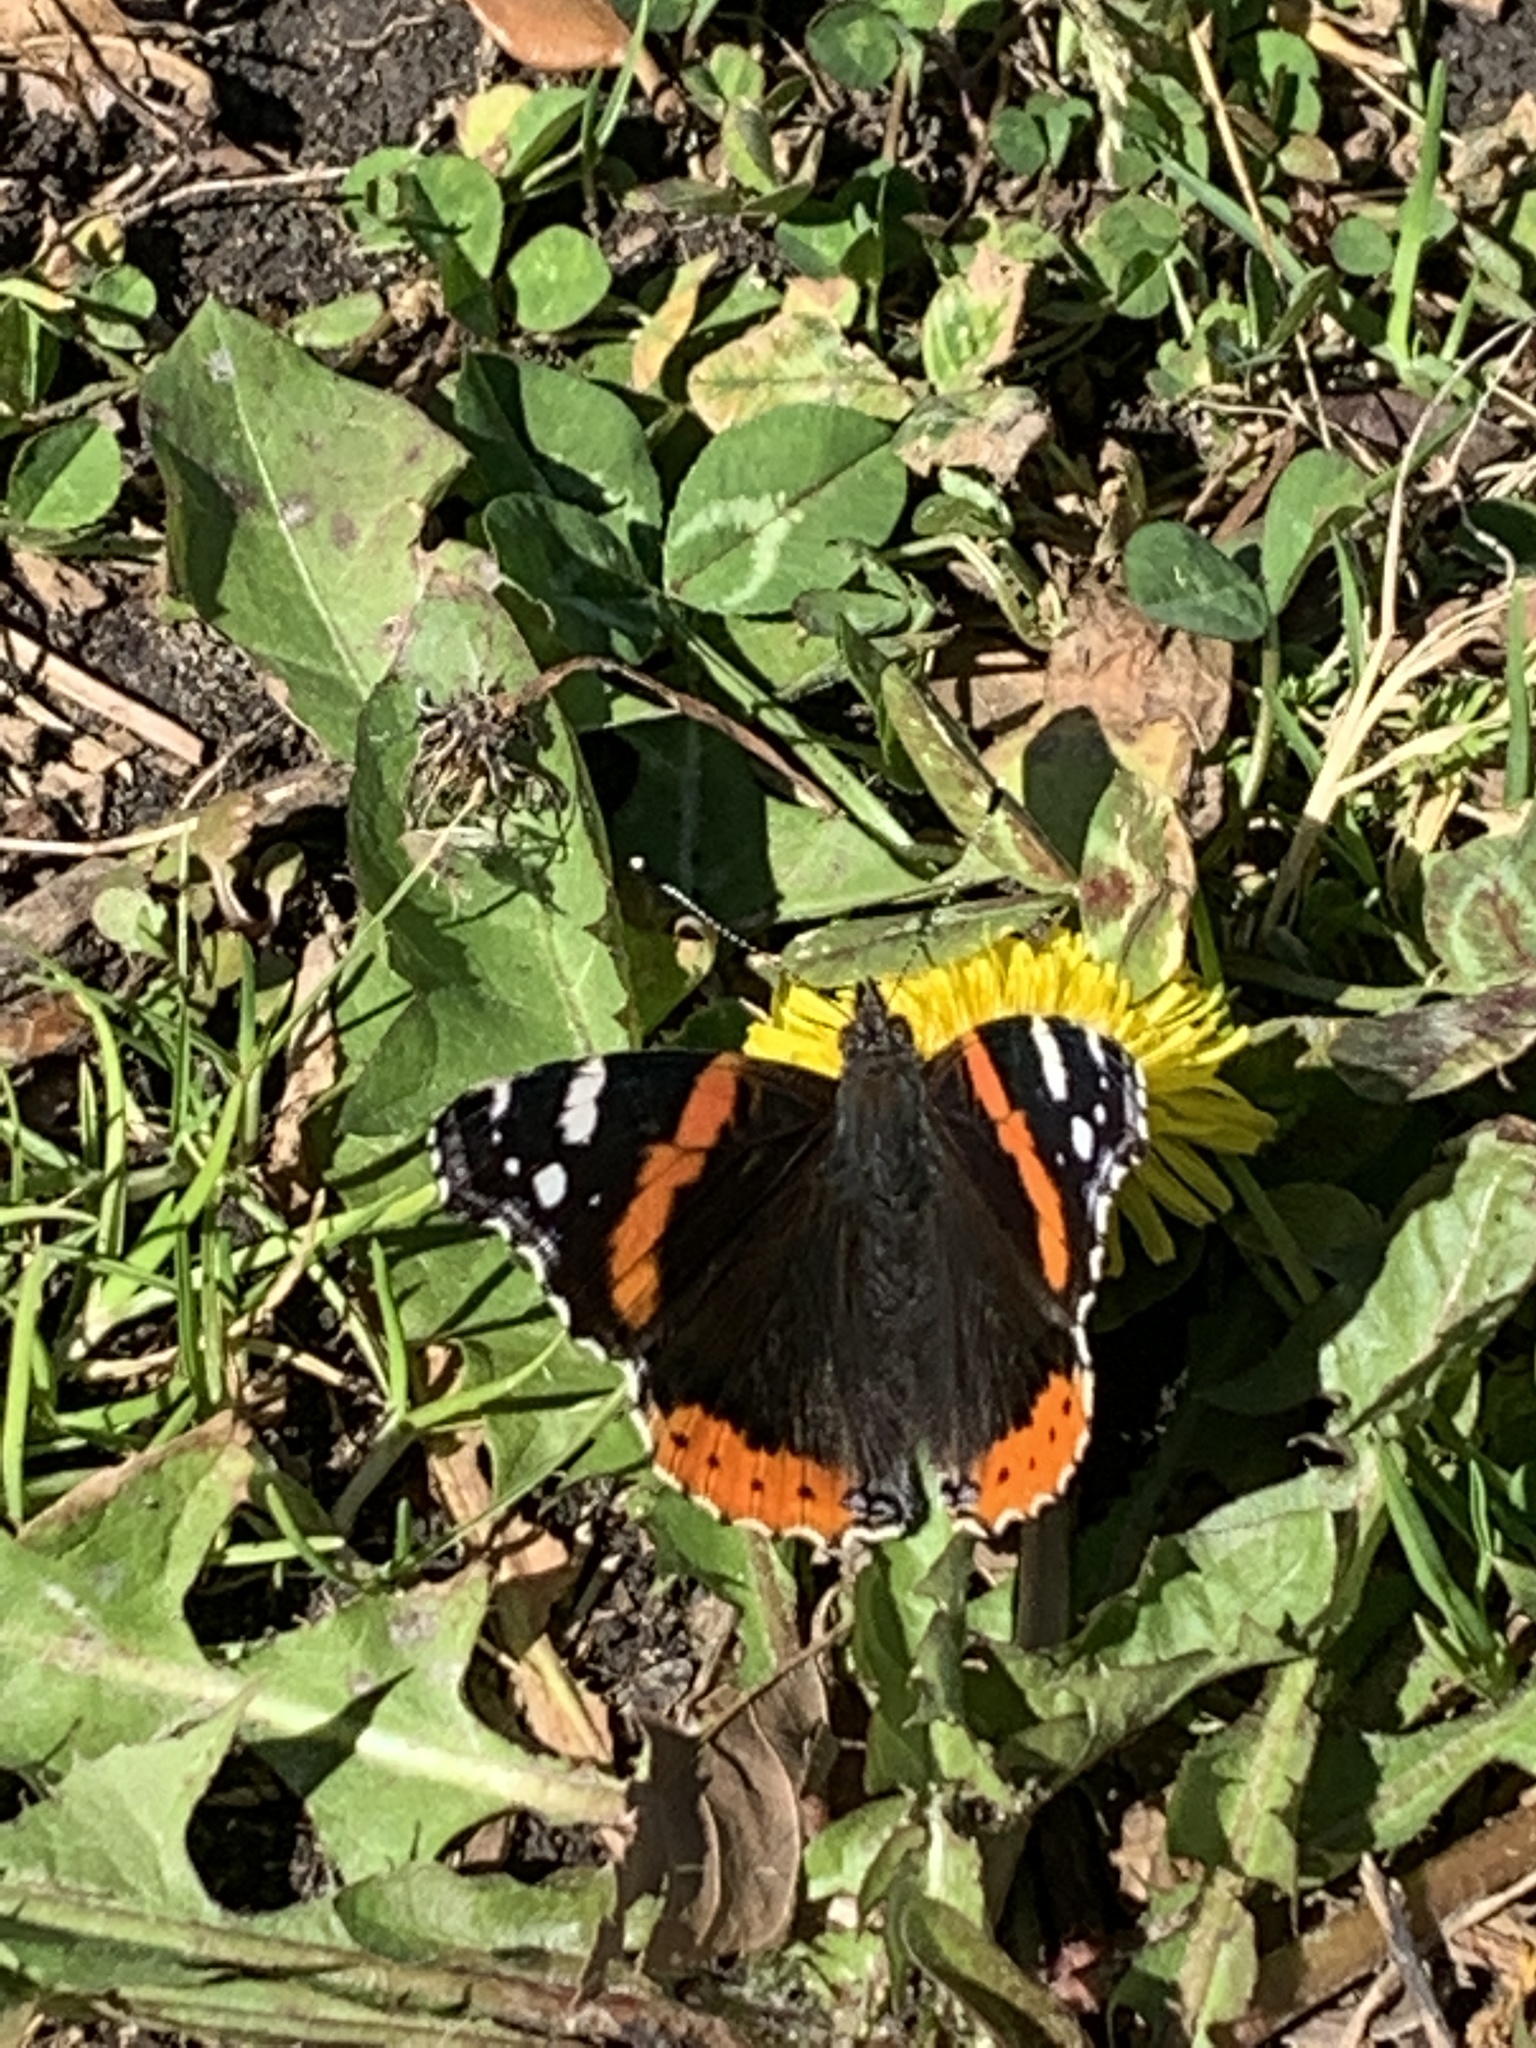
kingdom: Animalia
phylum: Arthropoda
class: Insecta
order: Lepidoptera
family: Nymphalidae
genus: Vanessa
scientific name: Vanessa atalanta
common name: Red admiral
